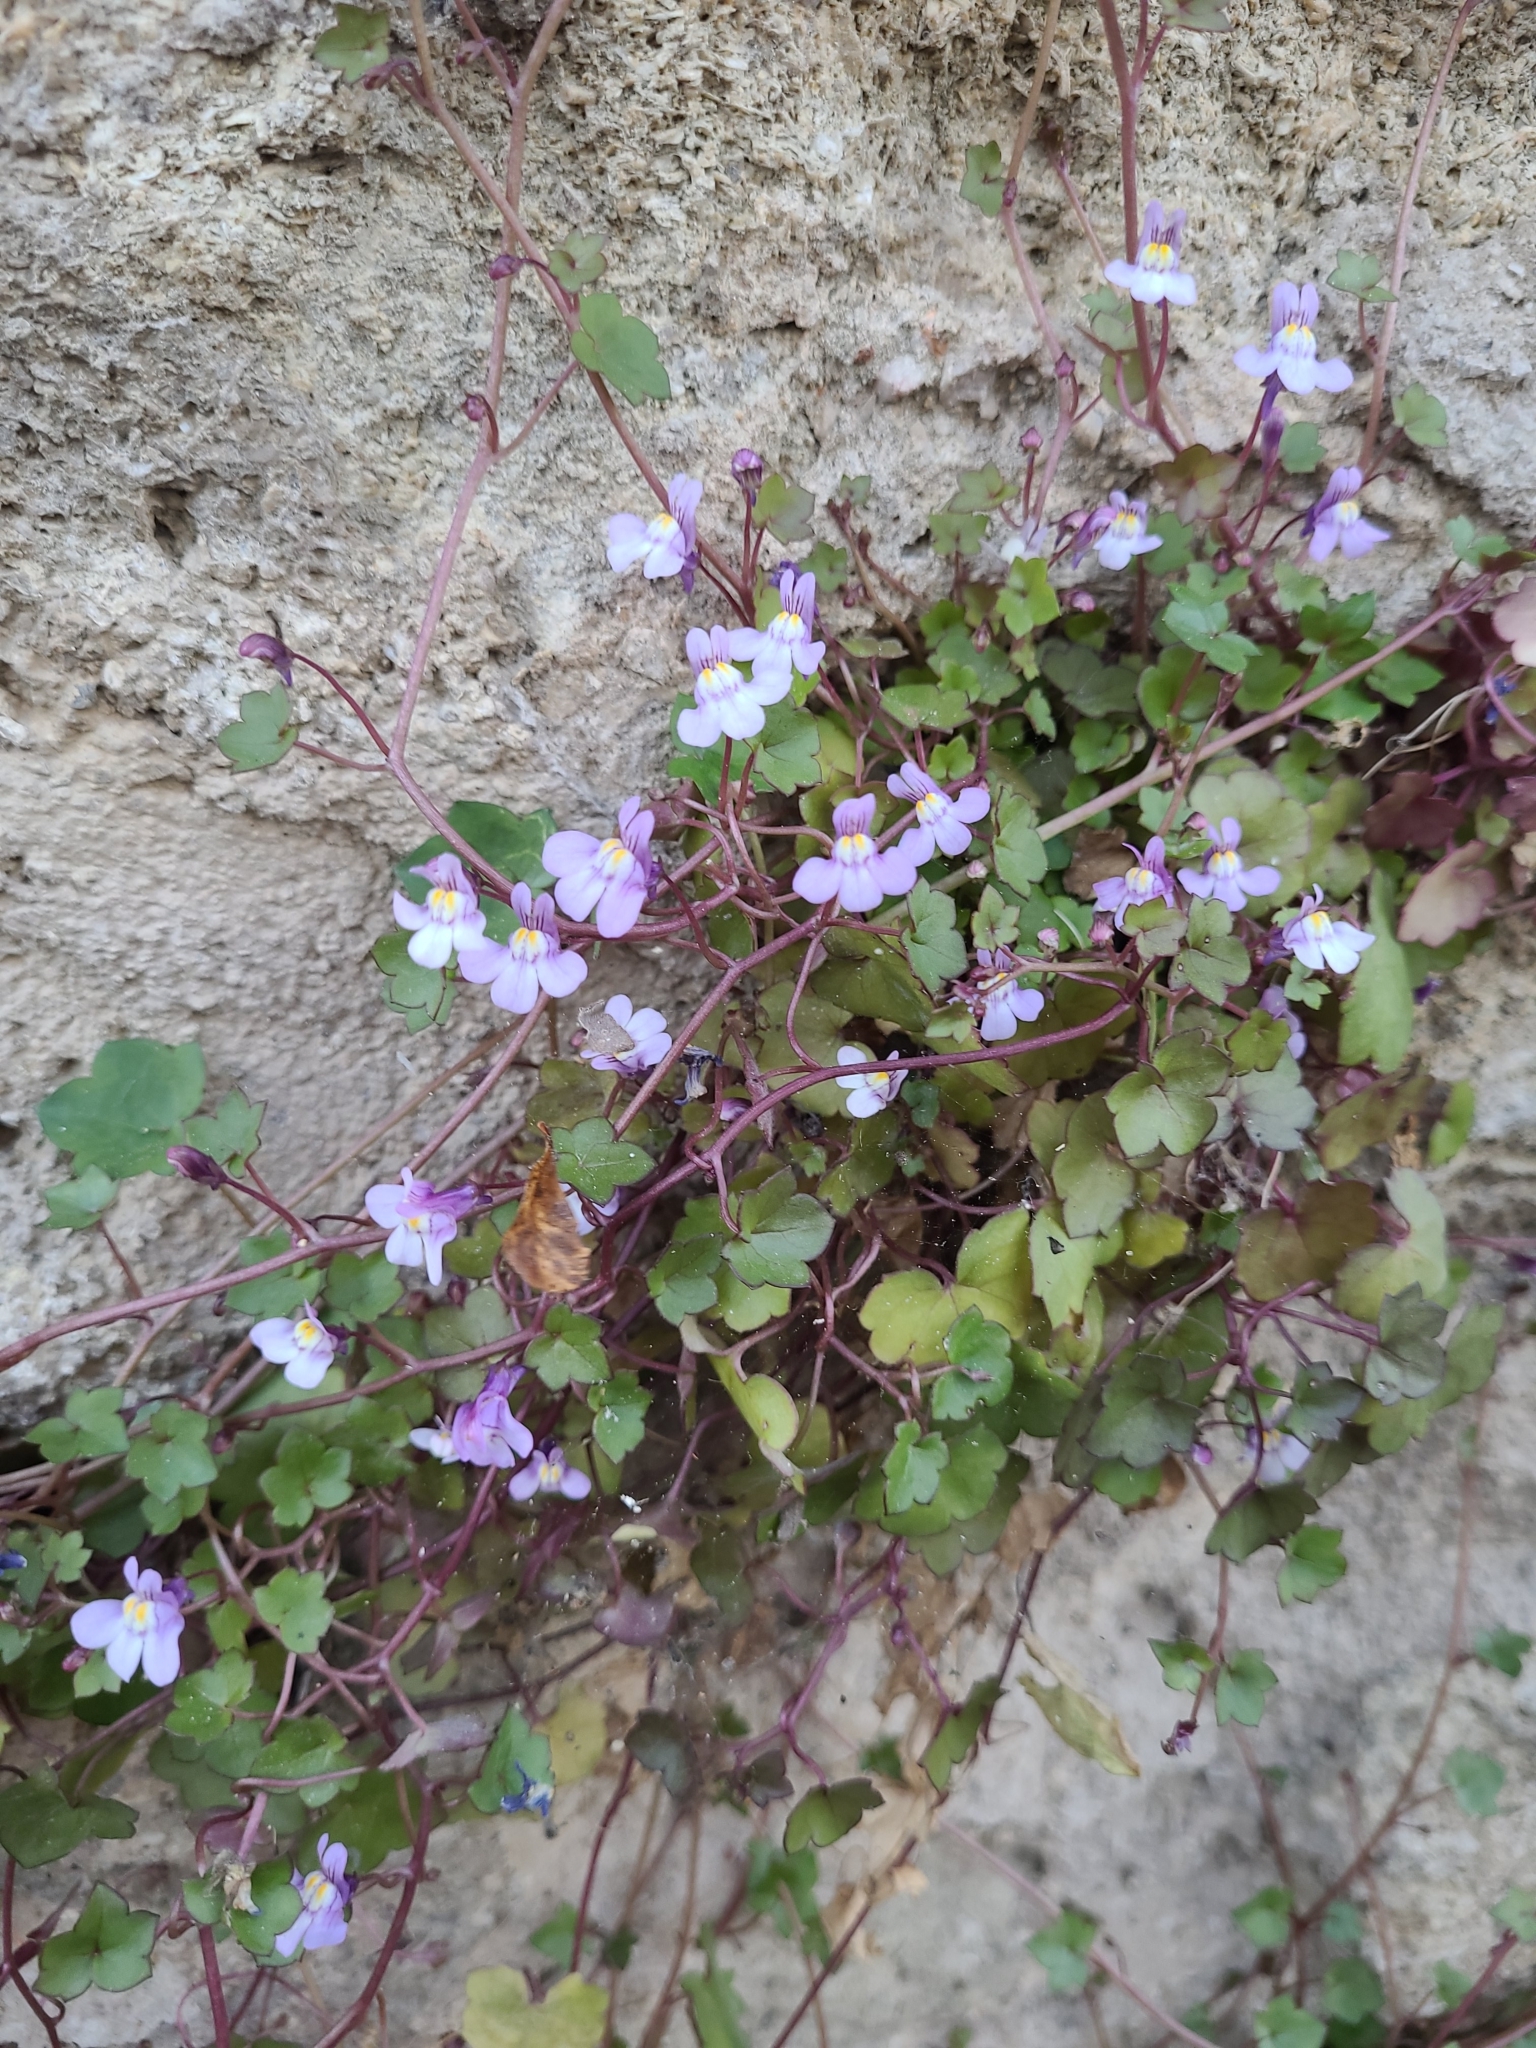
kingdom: Plantae
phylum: Tracheophyta
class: Magnoliopsida
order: Lamiales
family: Plantaginaceae
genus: Cymbalaria
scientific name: Cymbalaria muralis
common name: Ivy-leaved toadflax
